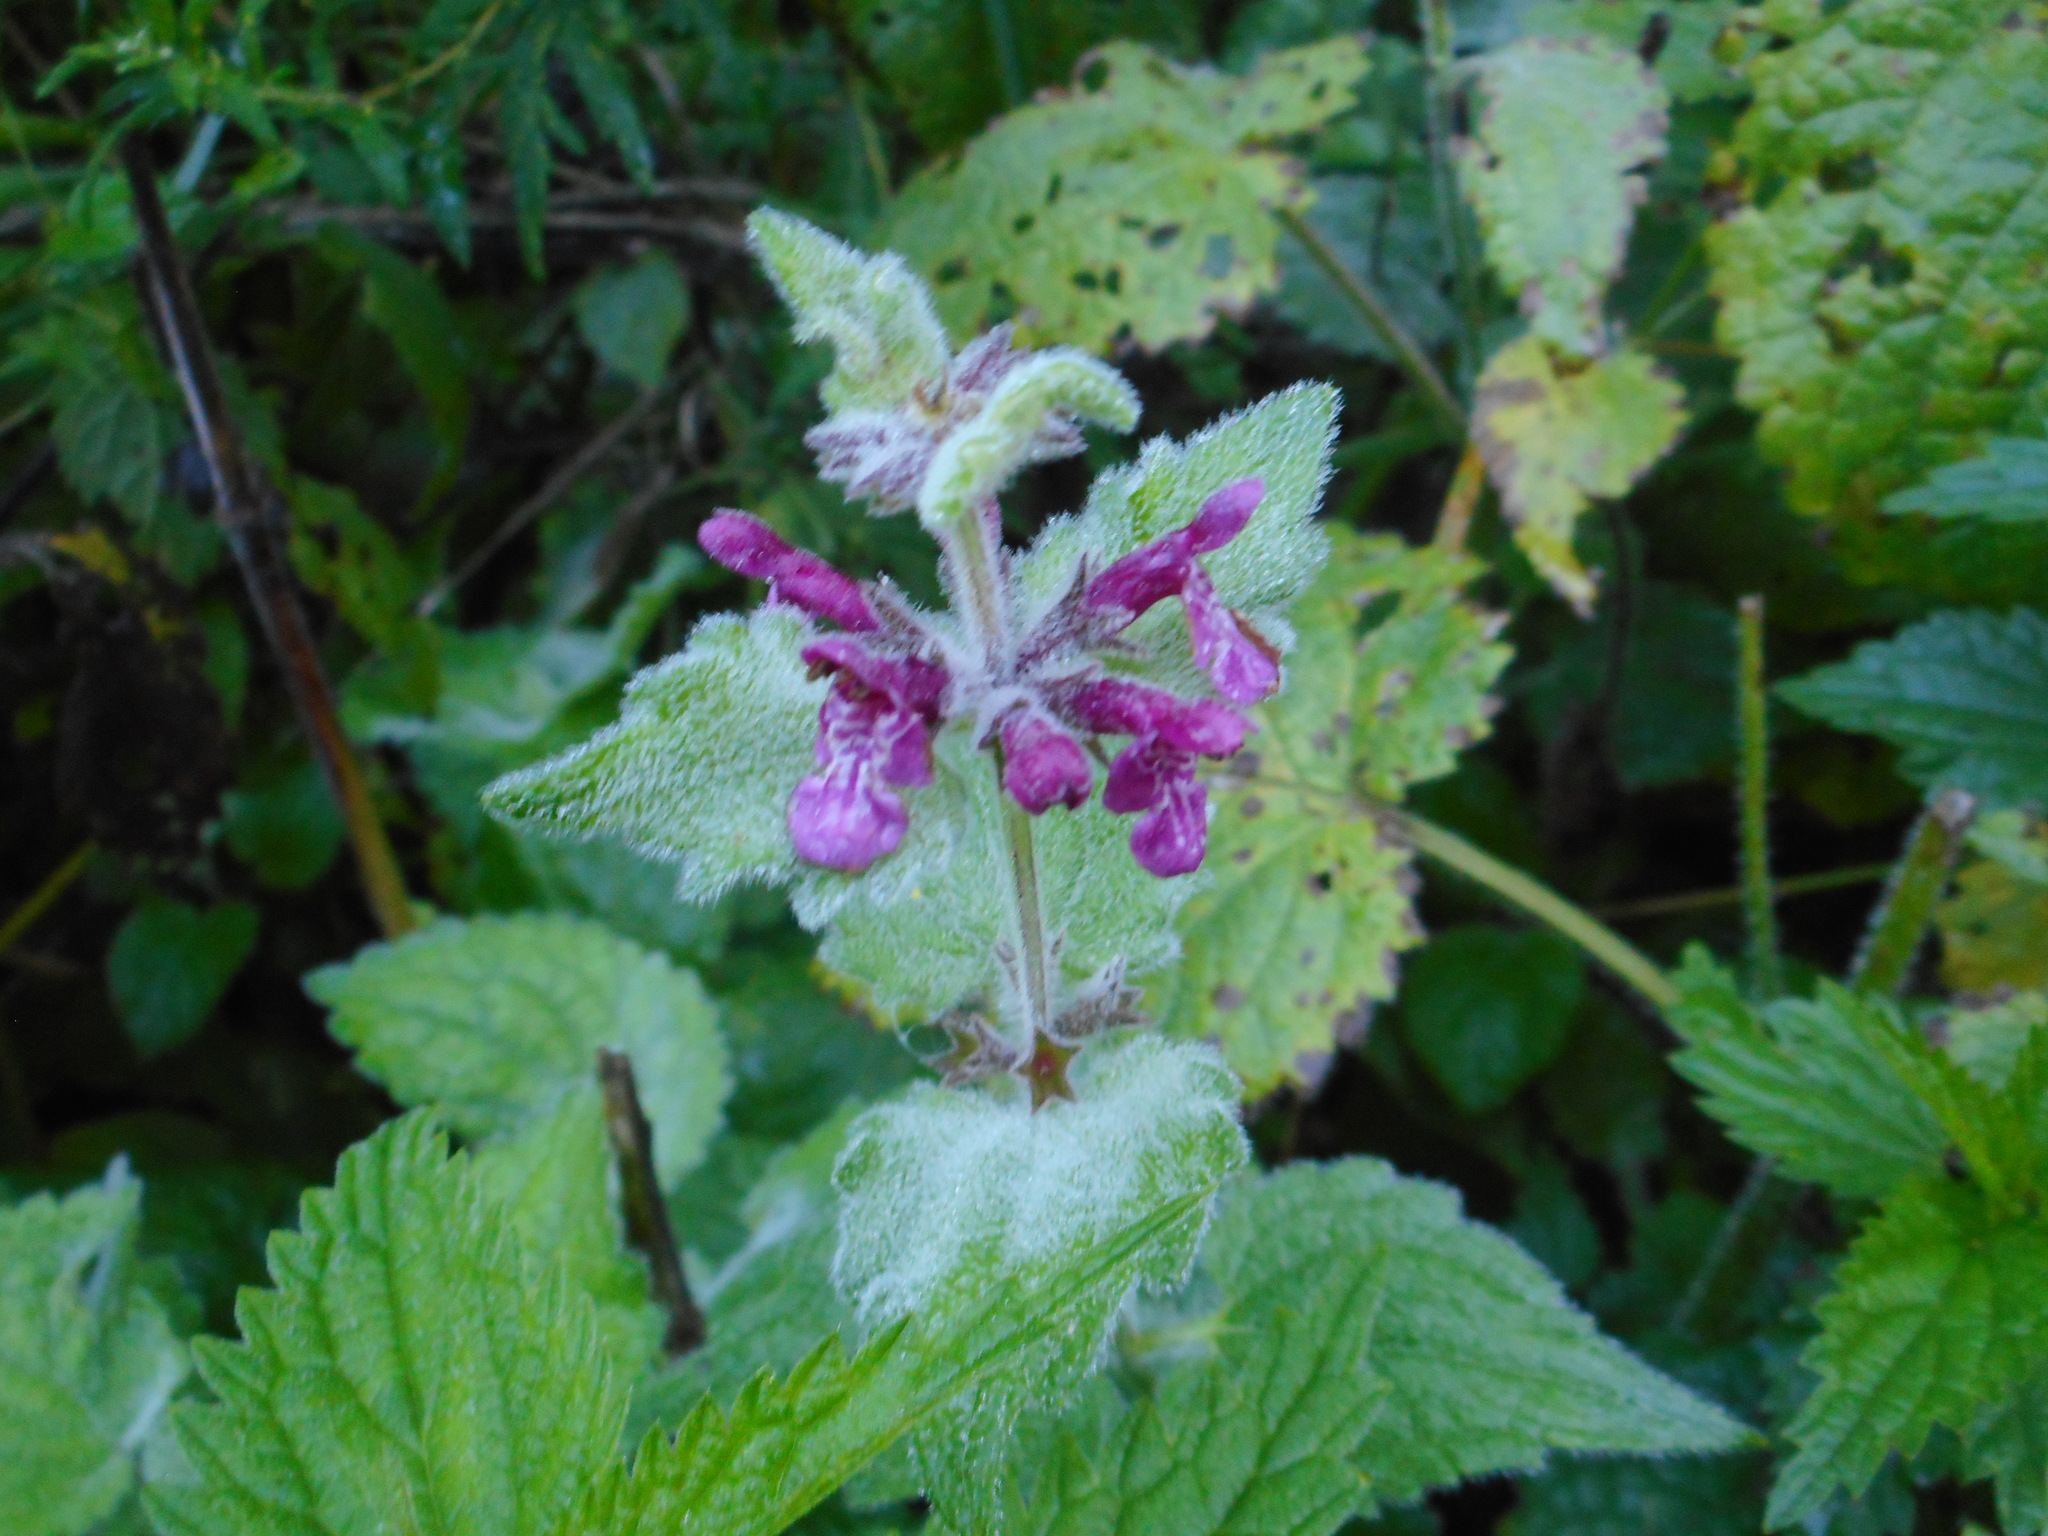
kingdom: Plantae
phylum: Tracheophyta
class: Magnoliopsida
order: Lamiales
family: Lamiaceae
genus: Stachys
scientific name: Stachys sylvatica
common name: Hedge woundwort
